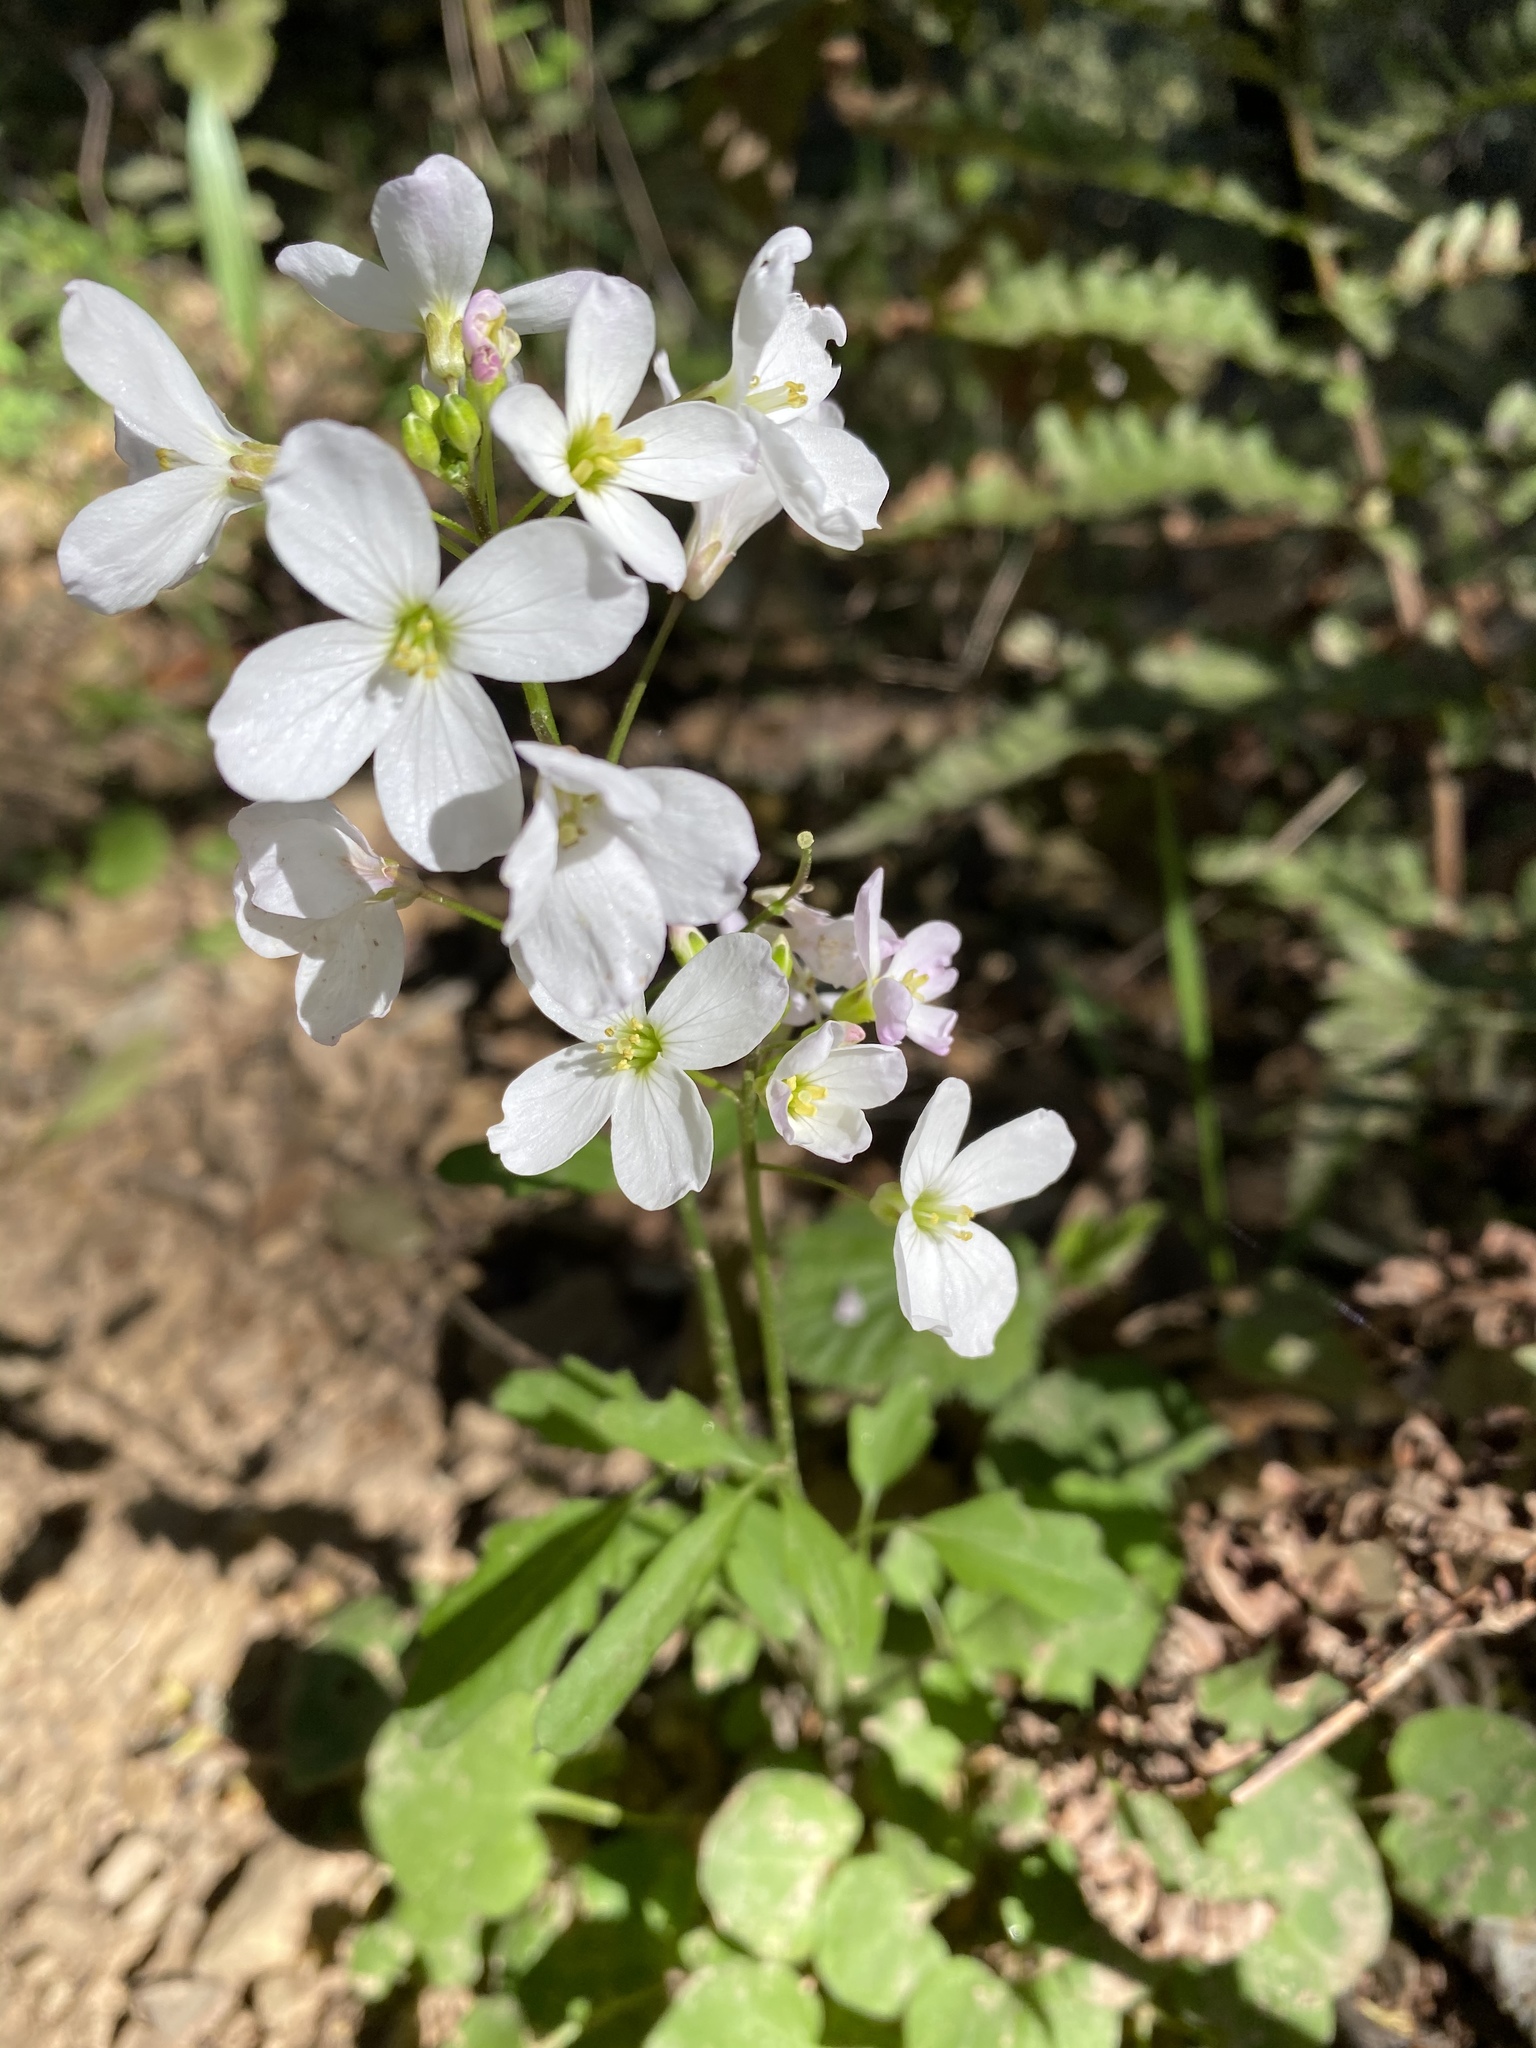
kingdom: Plantae
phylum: Tracheophyta
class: Magnoliopsida
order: Brassicales
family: Brassicaceae
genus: Cardamine
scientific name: Cardamine californica
